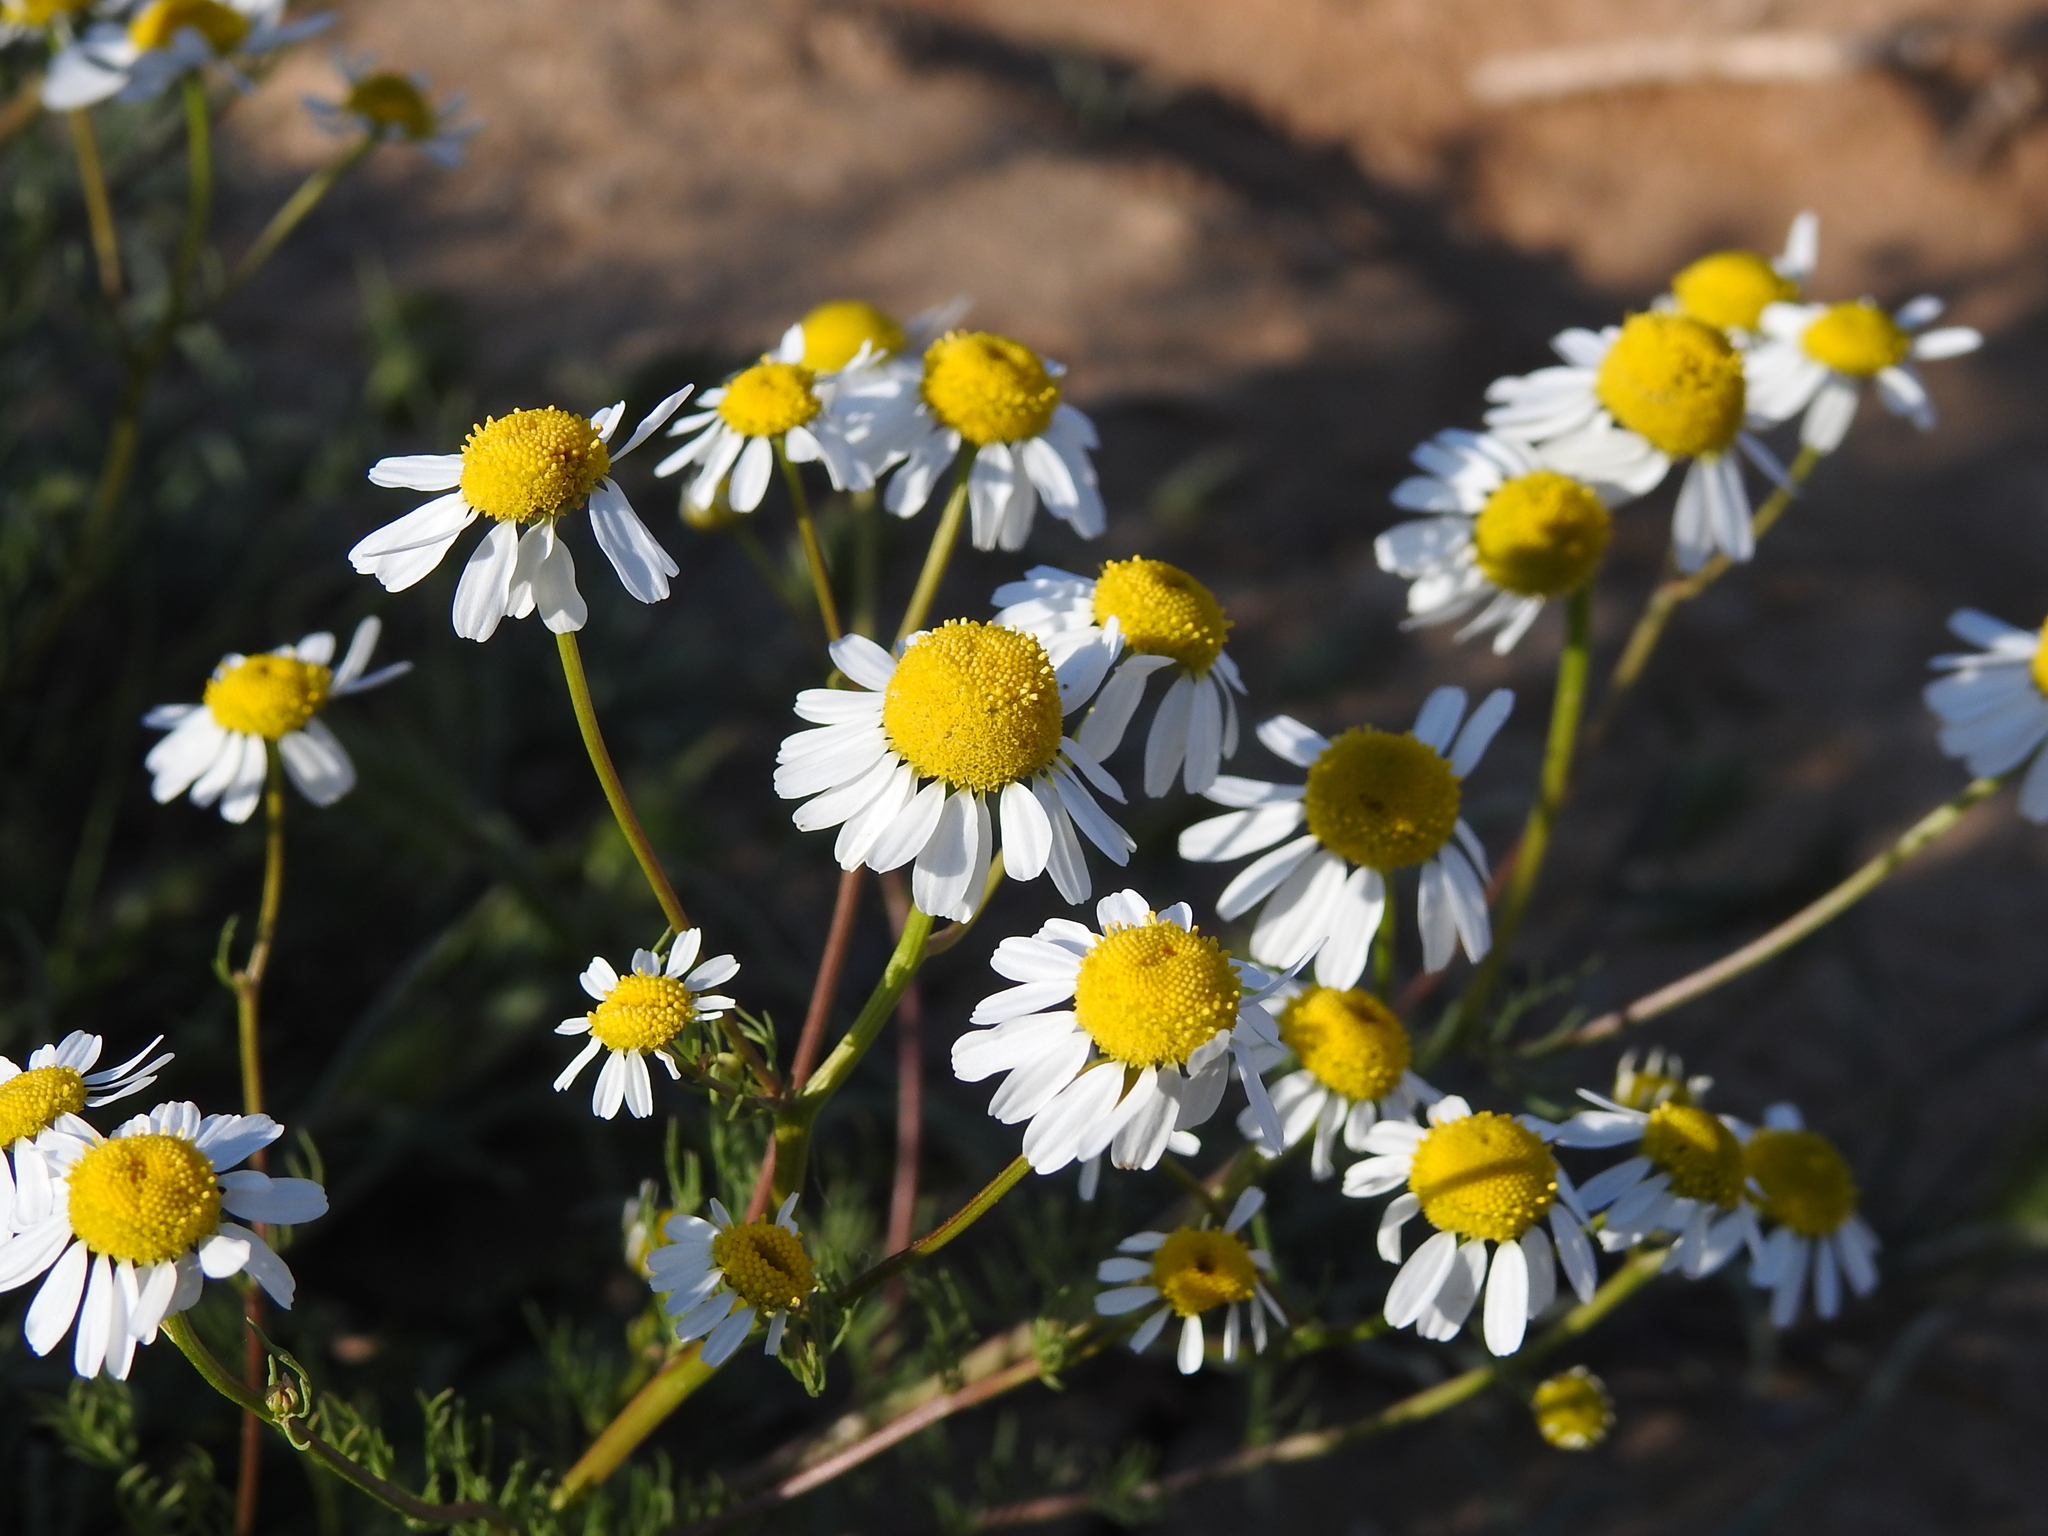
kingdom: Plantae
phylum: Tracheophyta
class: Magnoliopsida
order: Asterales
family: Asteraceae
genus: Matricaria
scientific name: Matricaria chamomilla
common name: Scented mayweed
